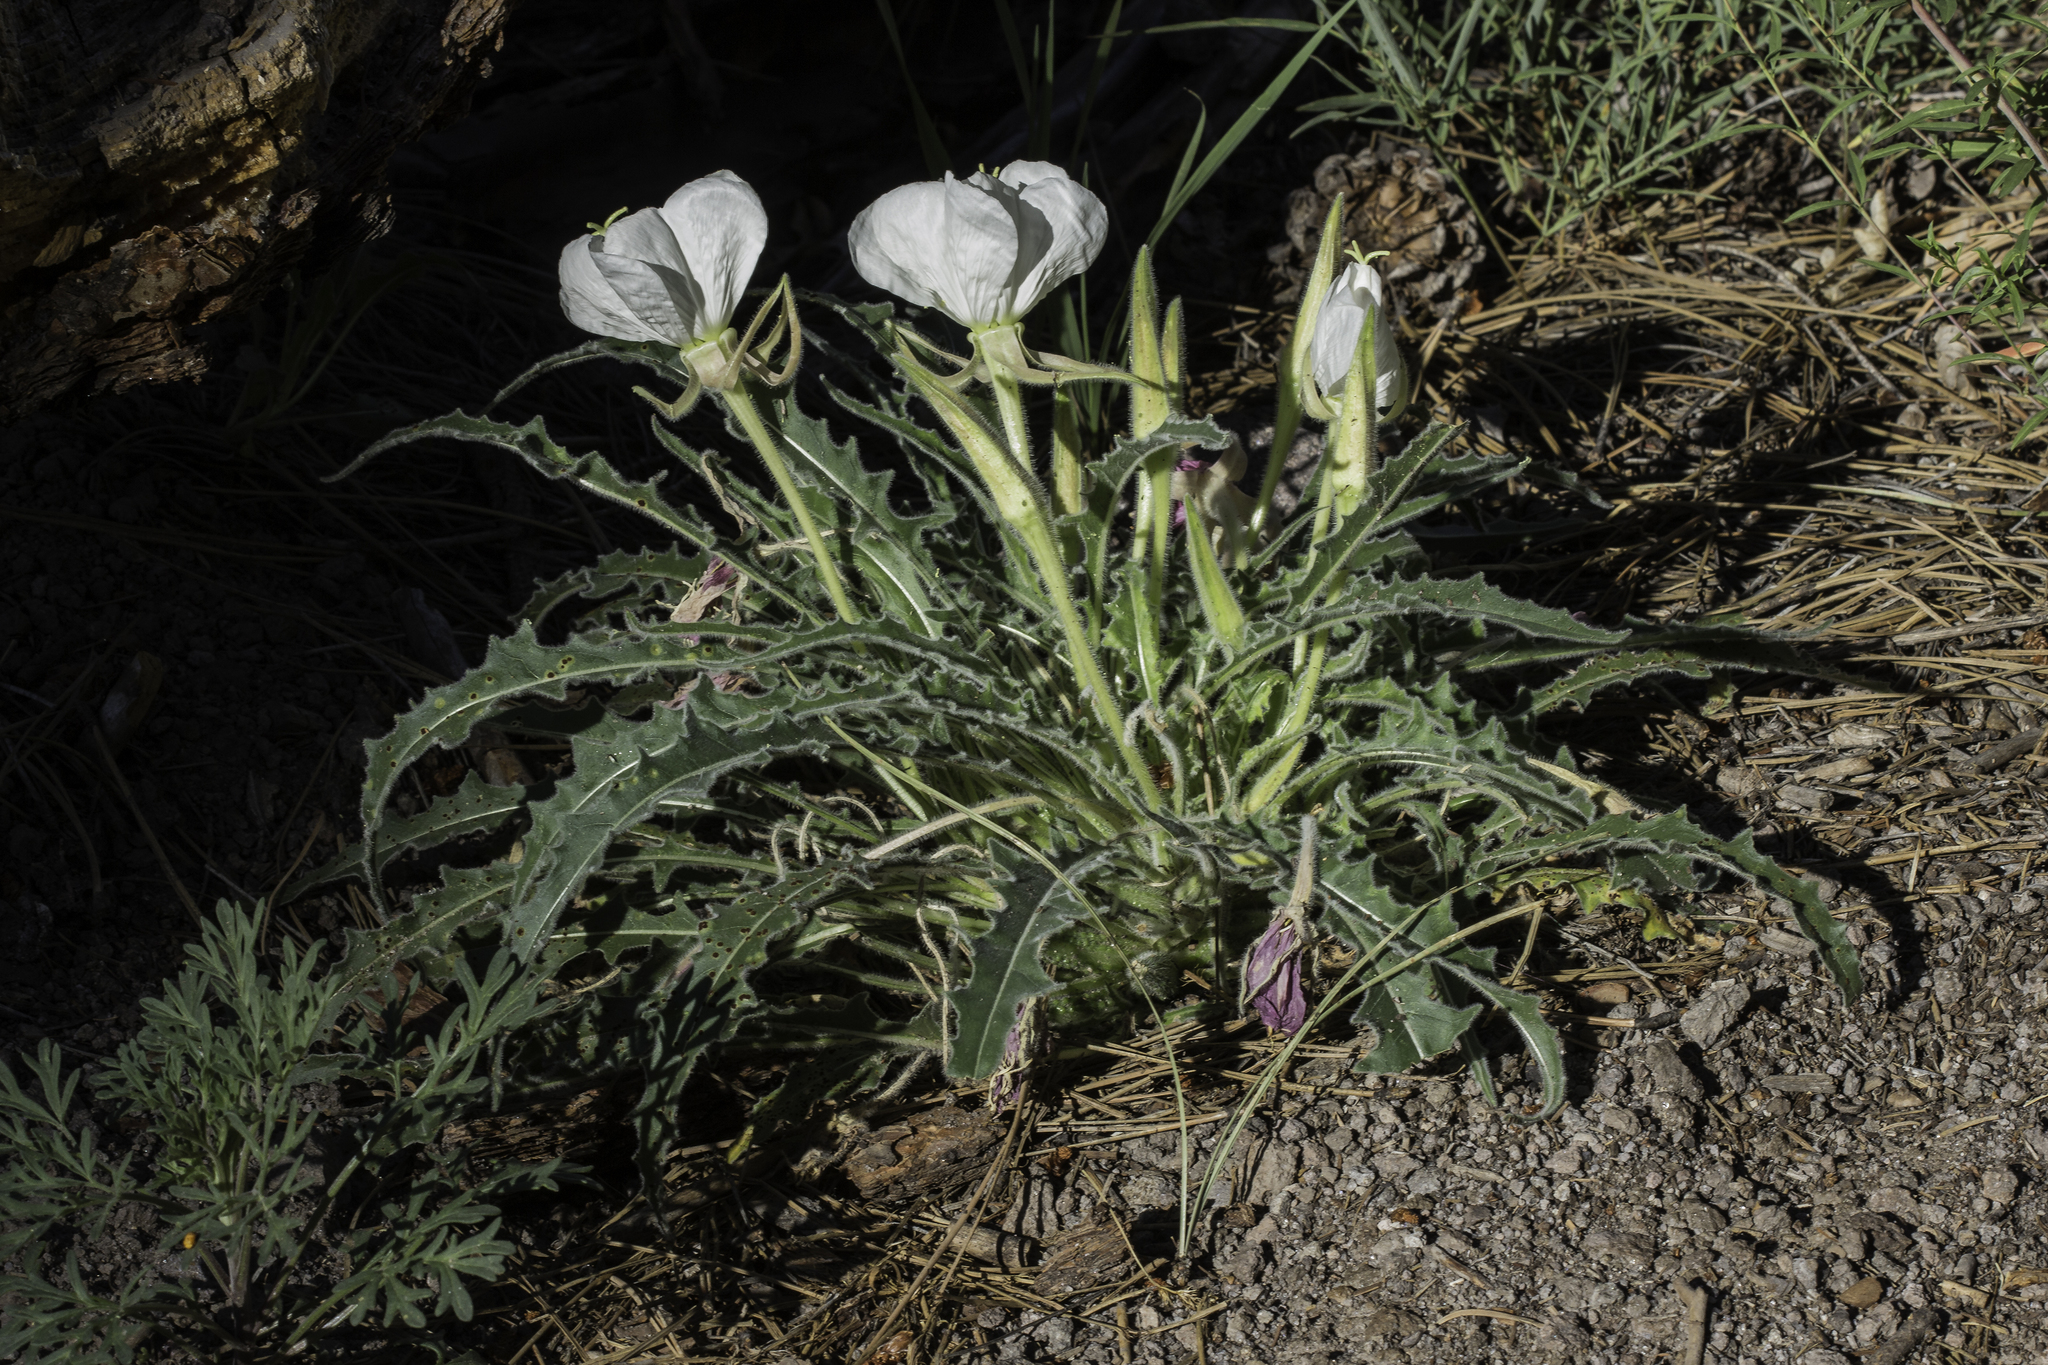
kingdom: Plantae
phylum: Tracheophyta
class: Magnoliopsida
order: Myrtales
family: Onagraceae
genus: Oenothera
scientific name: Oenothera cespitosa
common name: Tufted evening-primrose
